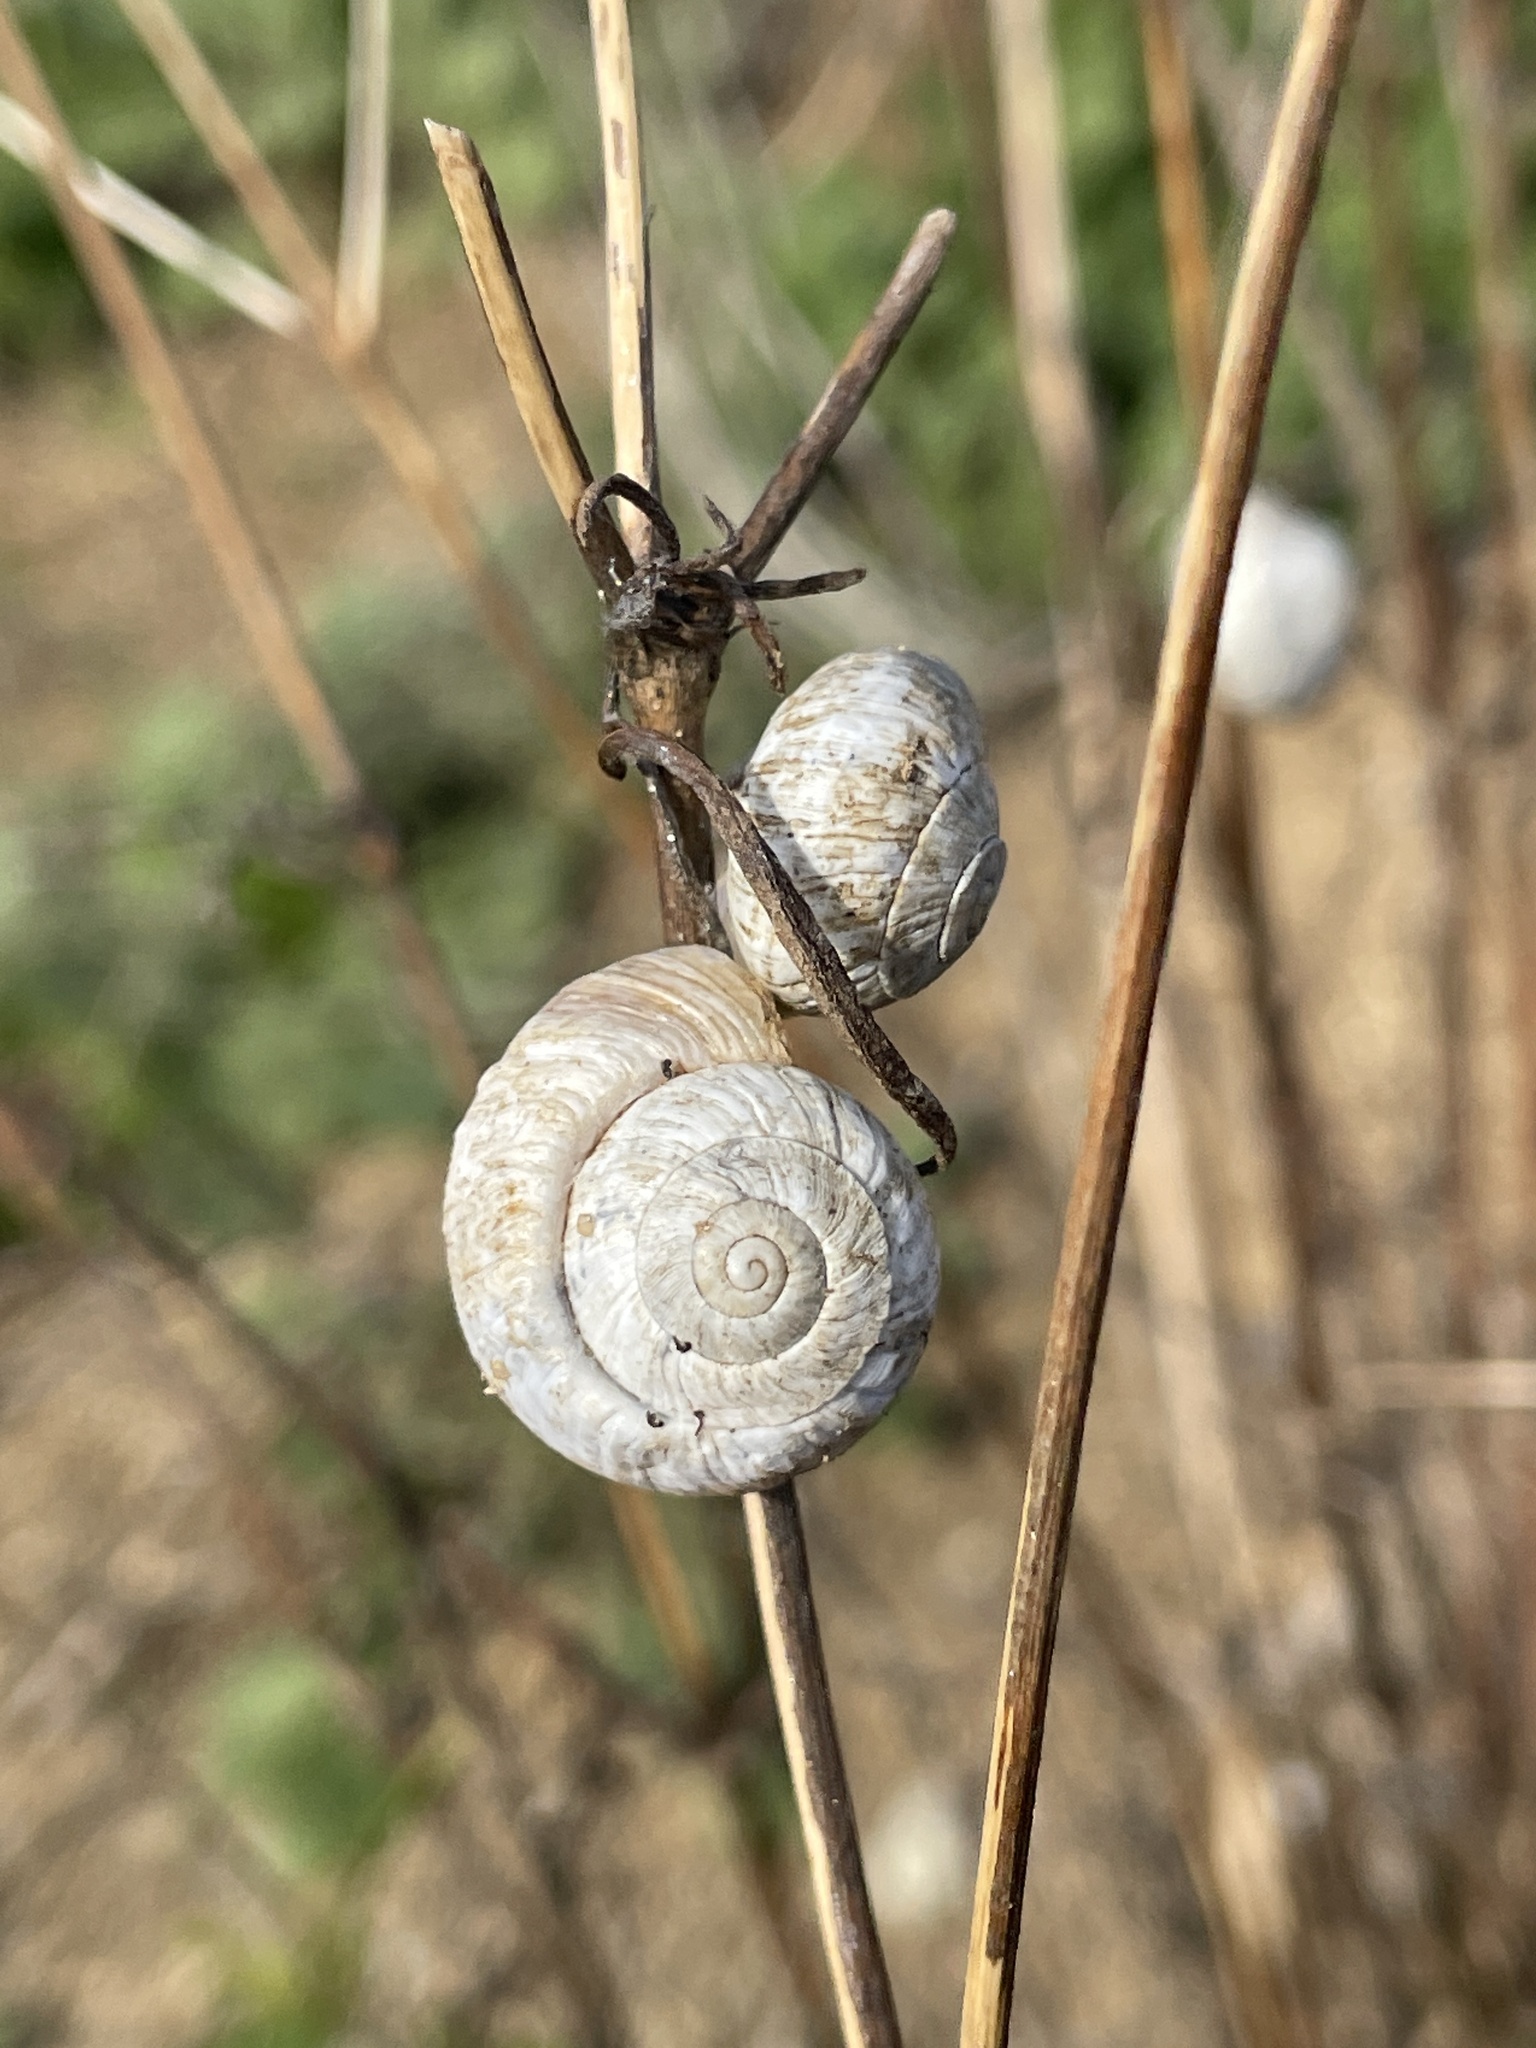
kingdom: Animalia
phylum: Mollusca
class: Gastropoda
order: Stylommatophora
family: Helicidae
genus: Theba
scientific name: Theba pisana
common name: White snail
